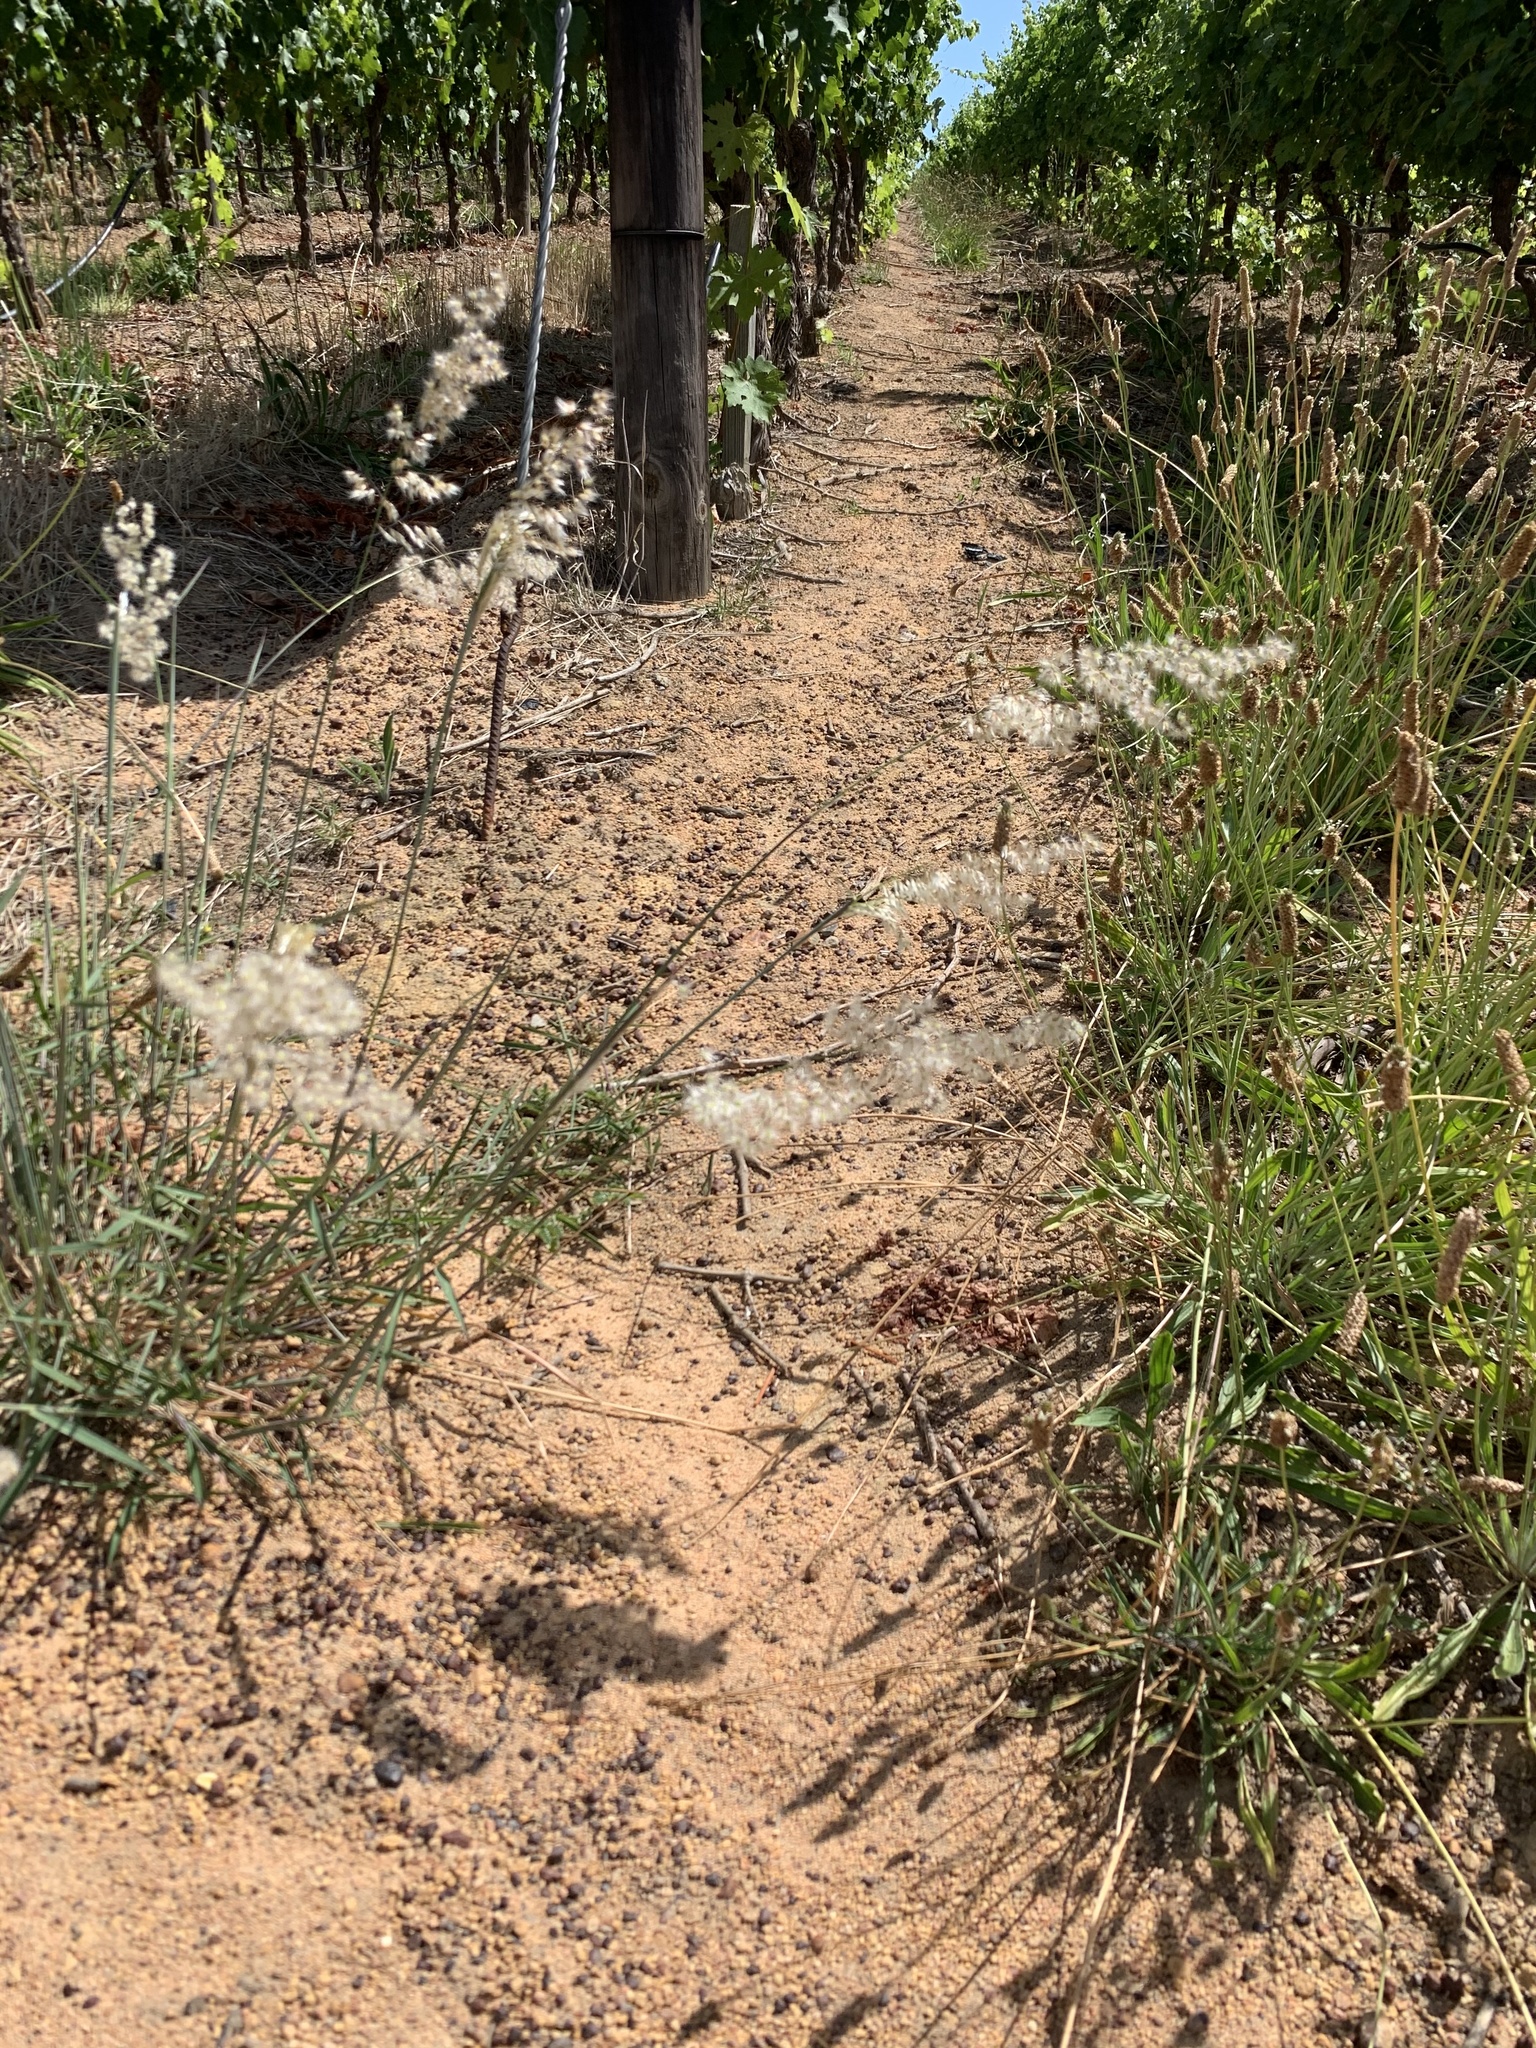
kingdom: Plantae
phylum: Tracheophyta
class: Liliopsida
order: Poales
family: Poaceae
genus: Melinis
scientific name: Melinis repens
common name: Rose natal grass
